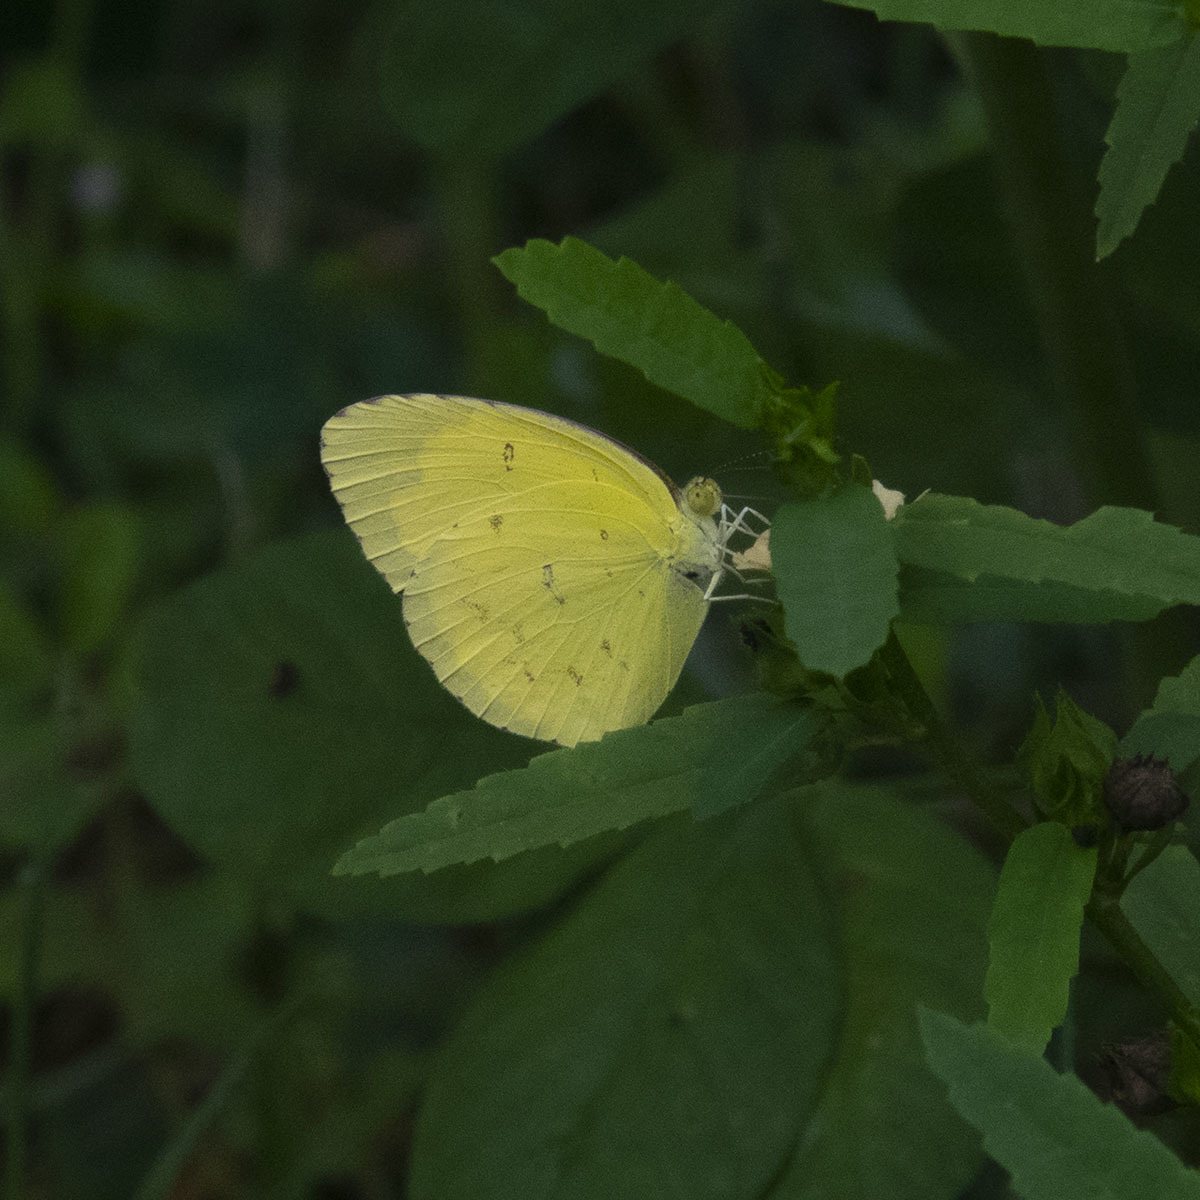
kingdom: Animalia
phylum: Arthropoda
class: Insecta
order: Lepidoptera
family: Pieridae
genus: Eurema
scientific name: Eurema hecabe
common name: Pale grass yellow
